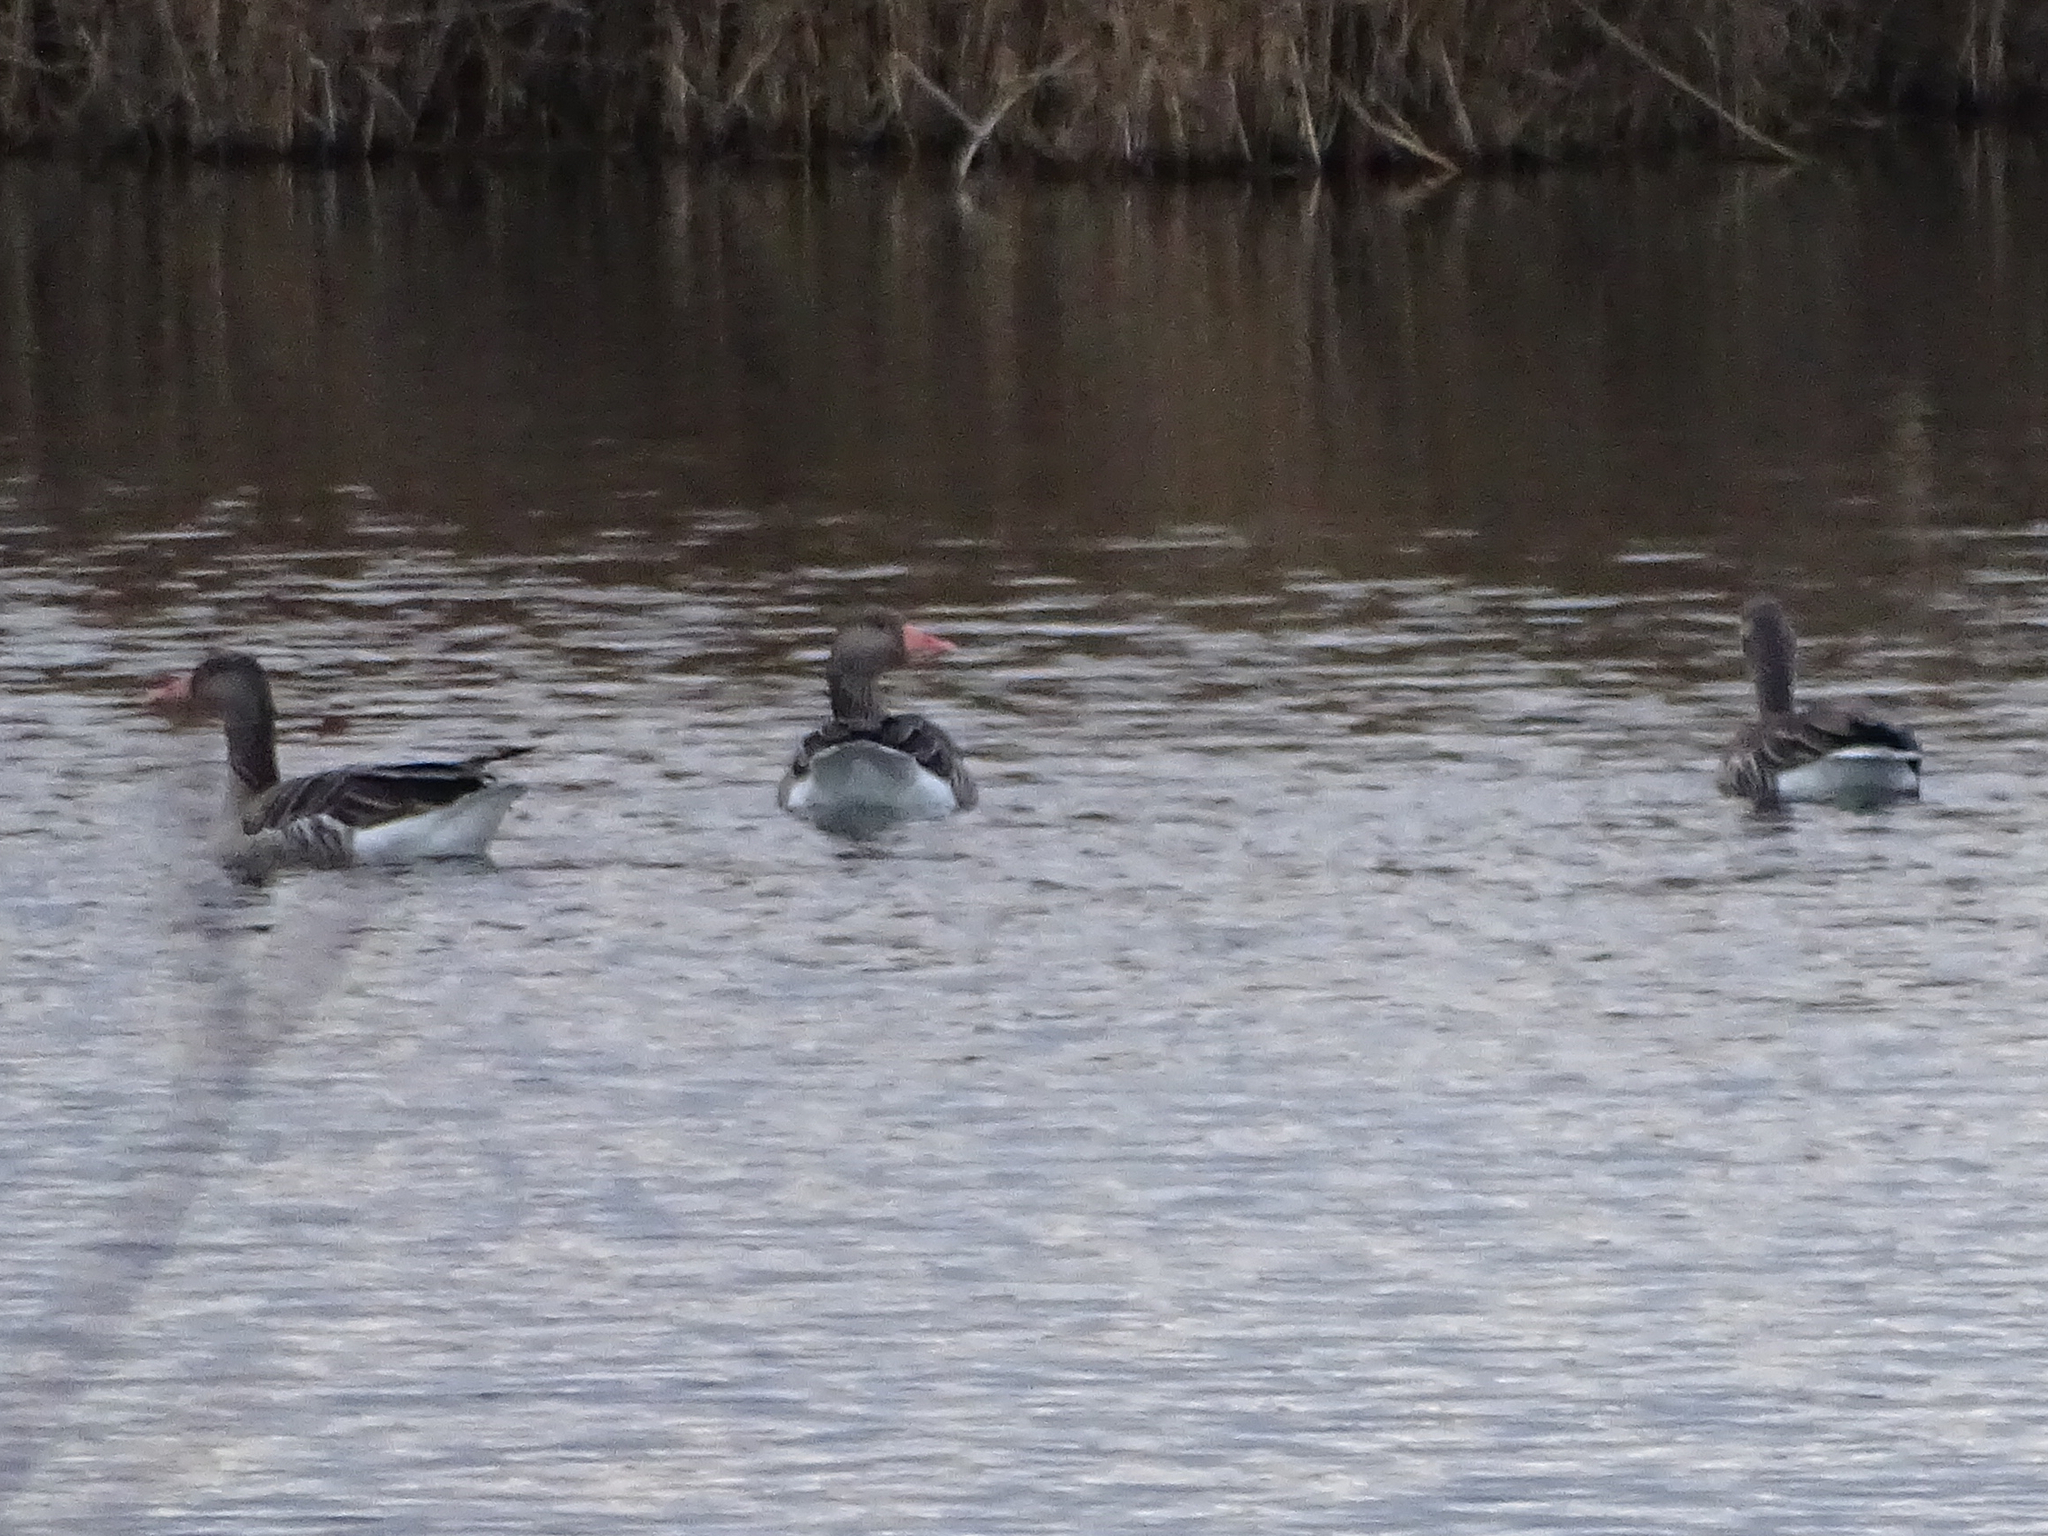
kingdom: Animalia
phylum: Chordata
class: Aves
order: Anseriformes
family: Anatidae
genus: Anser
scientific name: Anser anser
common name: Greylag goose
